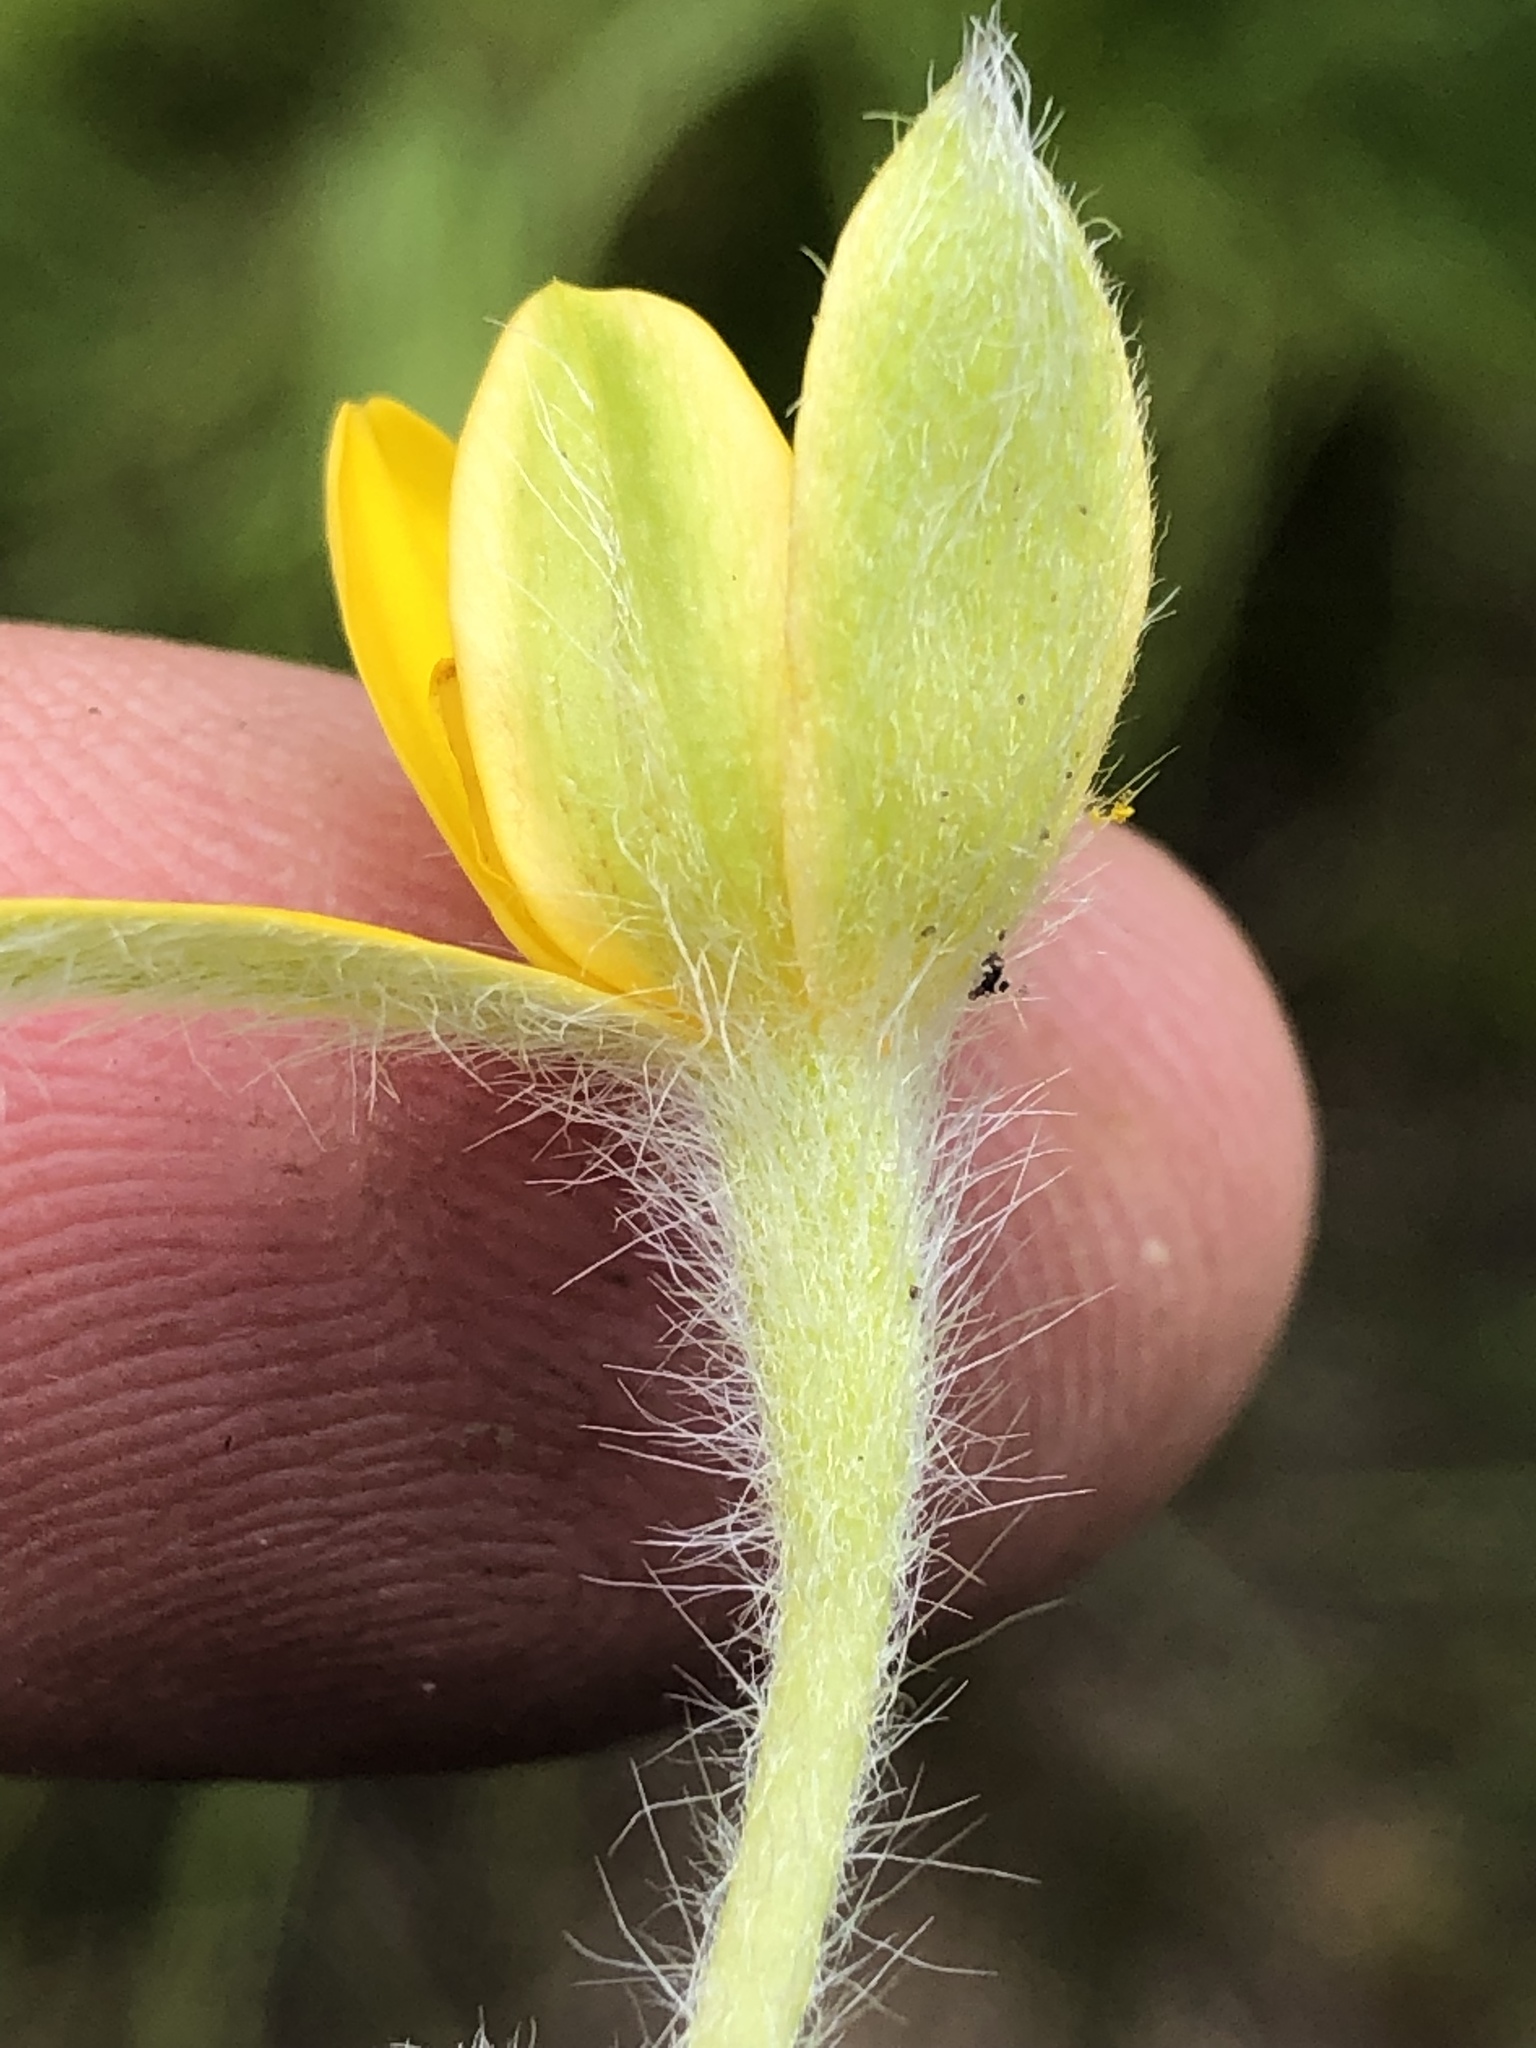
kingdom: Plantae
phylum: Tracheophyta
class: Liliopsida
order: Asparagales
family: Hypoxidaceae
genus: Hypoxis
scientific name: Hypoxis sobolifera
